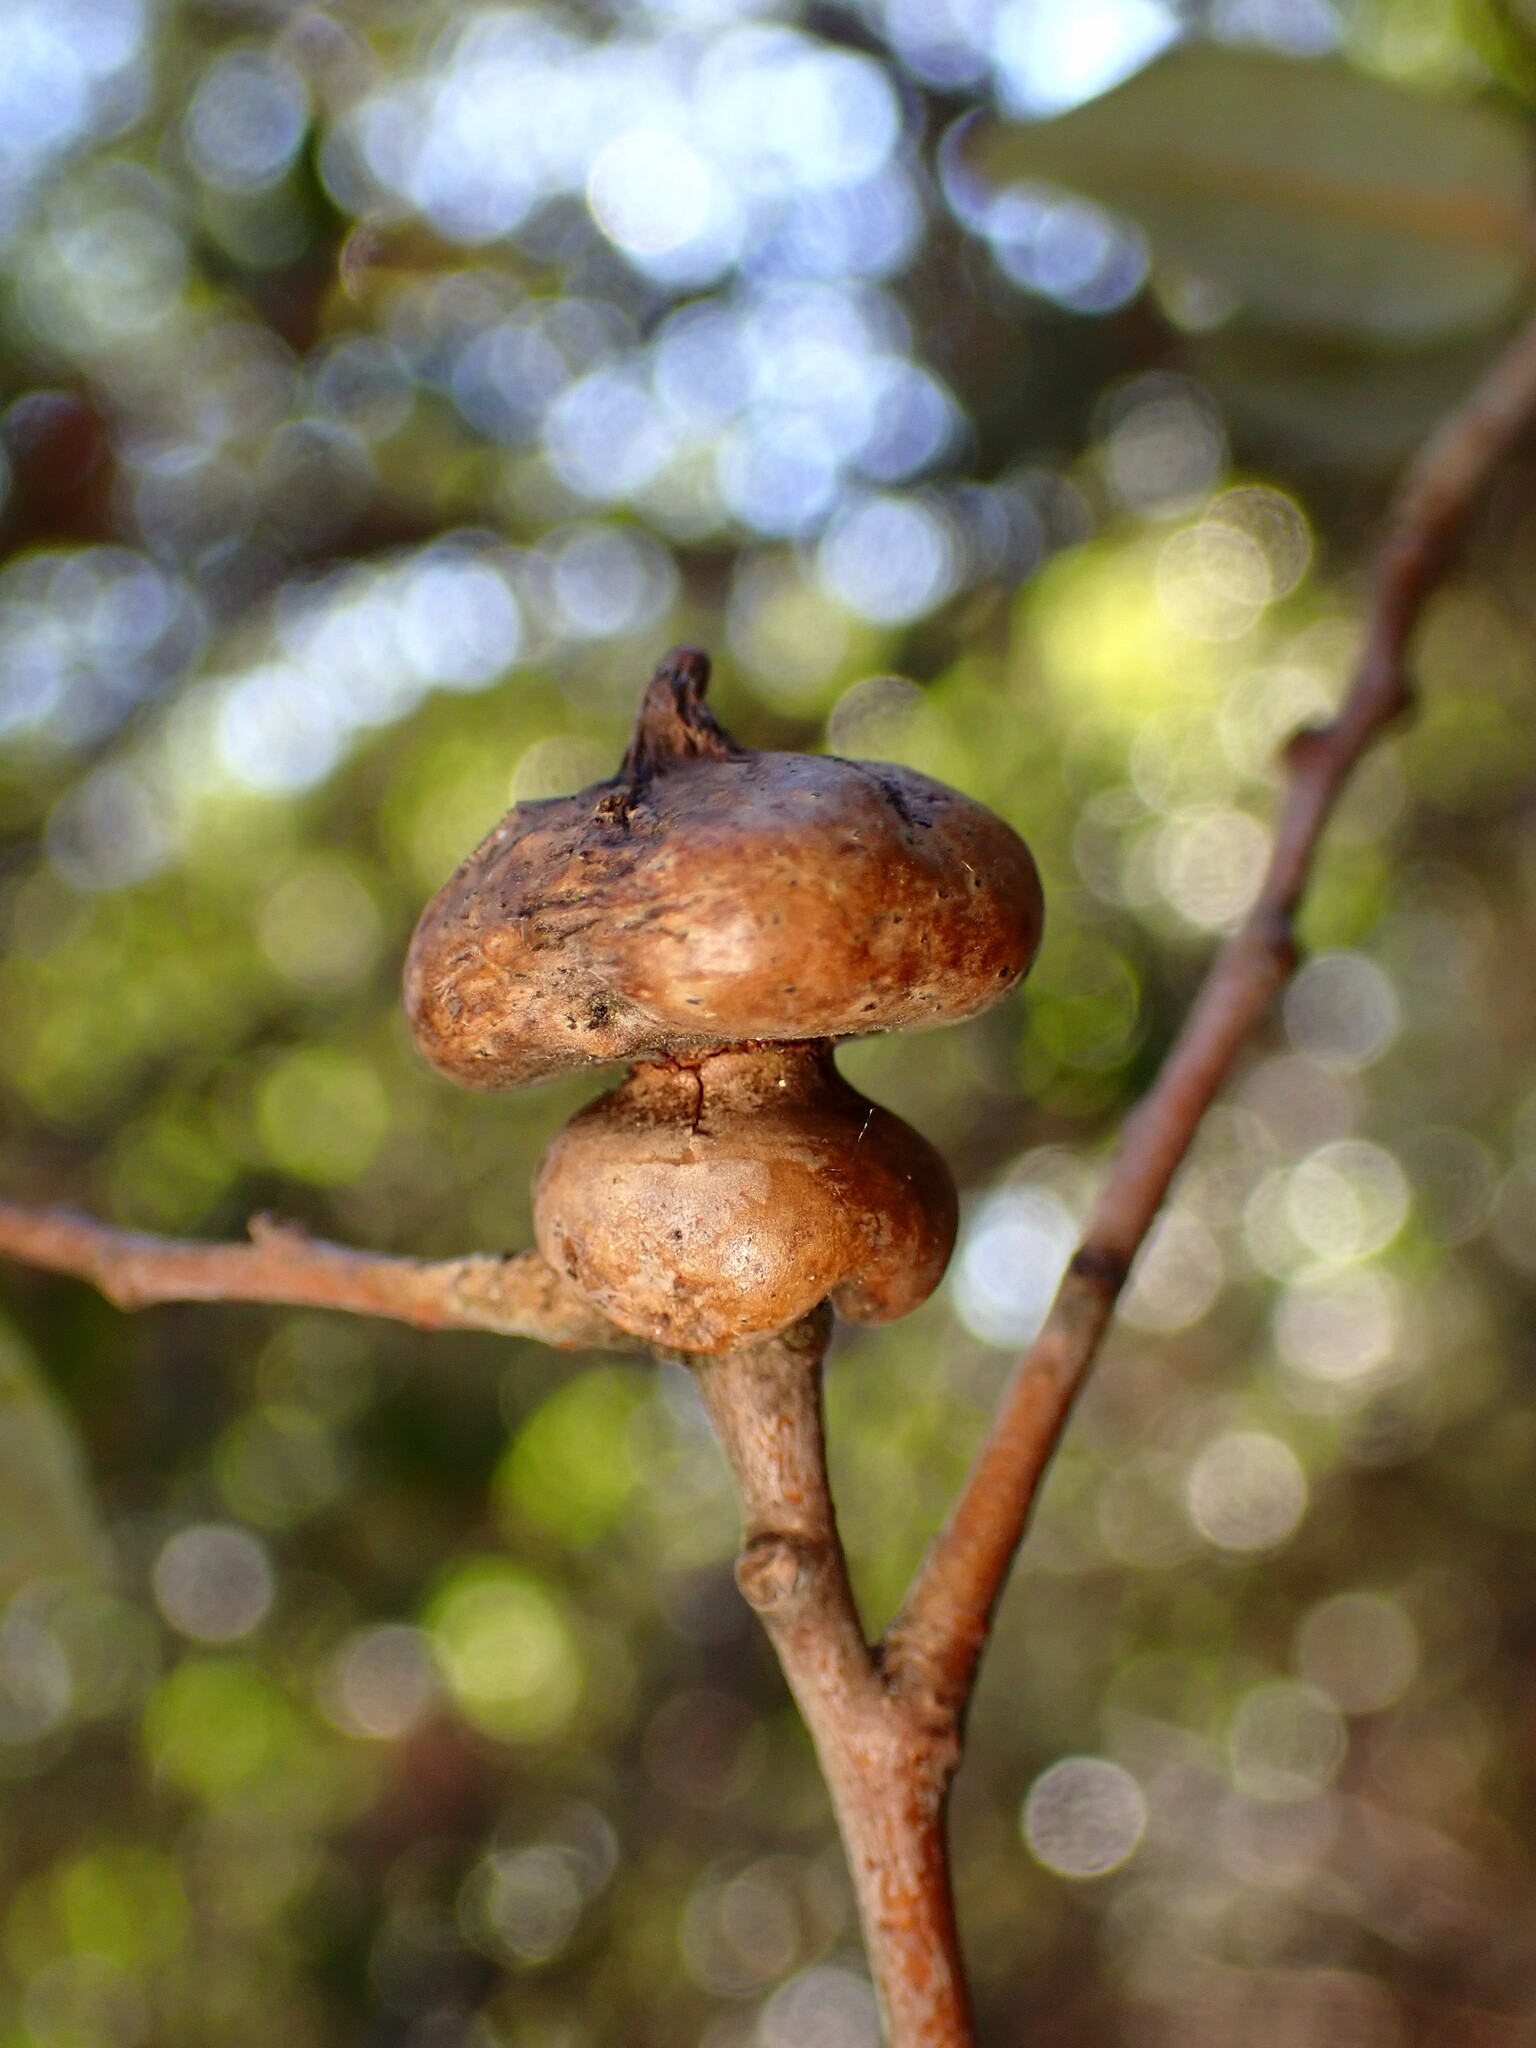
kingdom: Animalia
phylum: Arthropoda
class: Insecta
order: Hymenoptera
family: Cynipidae
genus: Heteroecus
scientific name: Heteroecus
